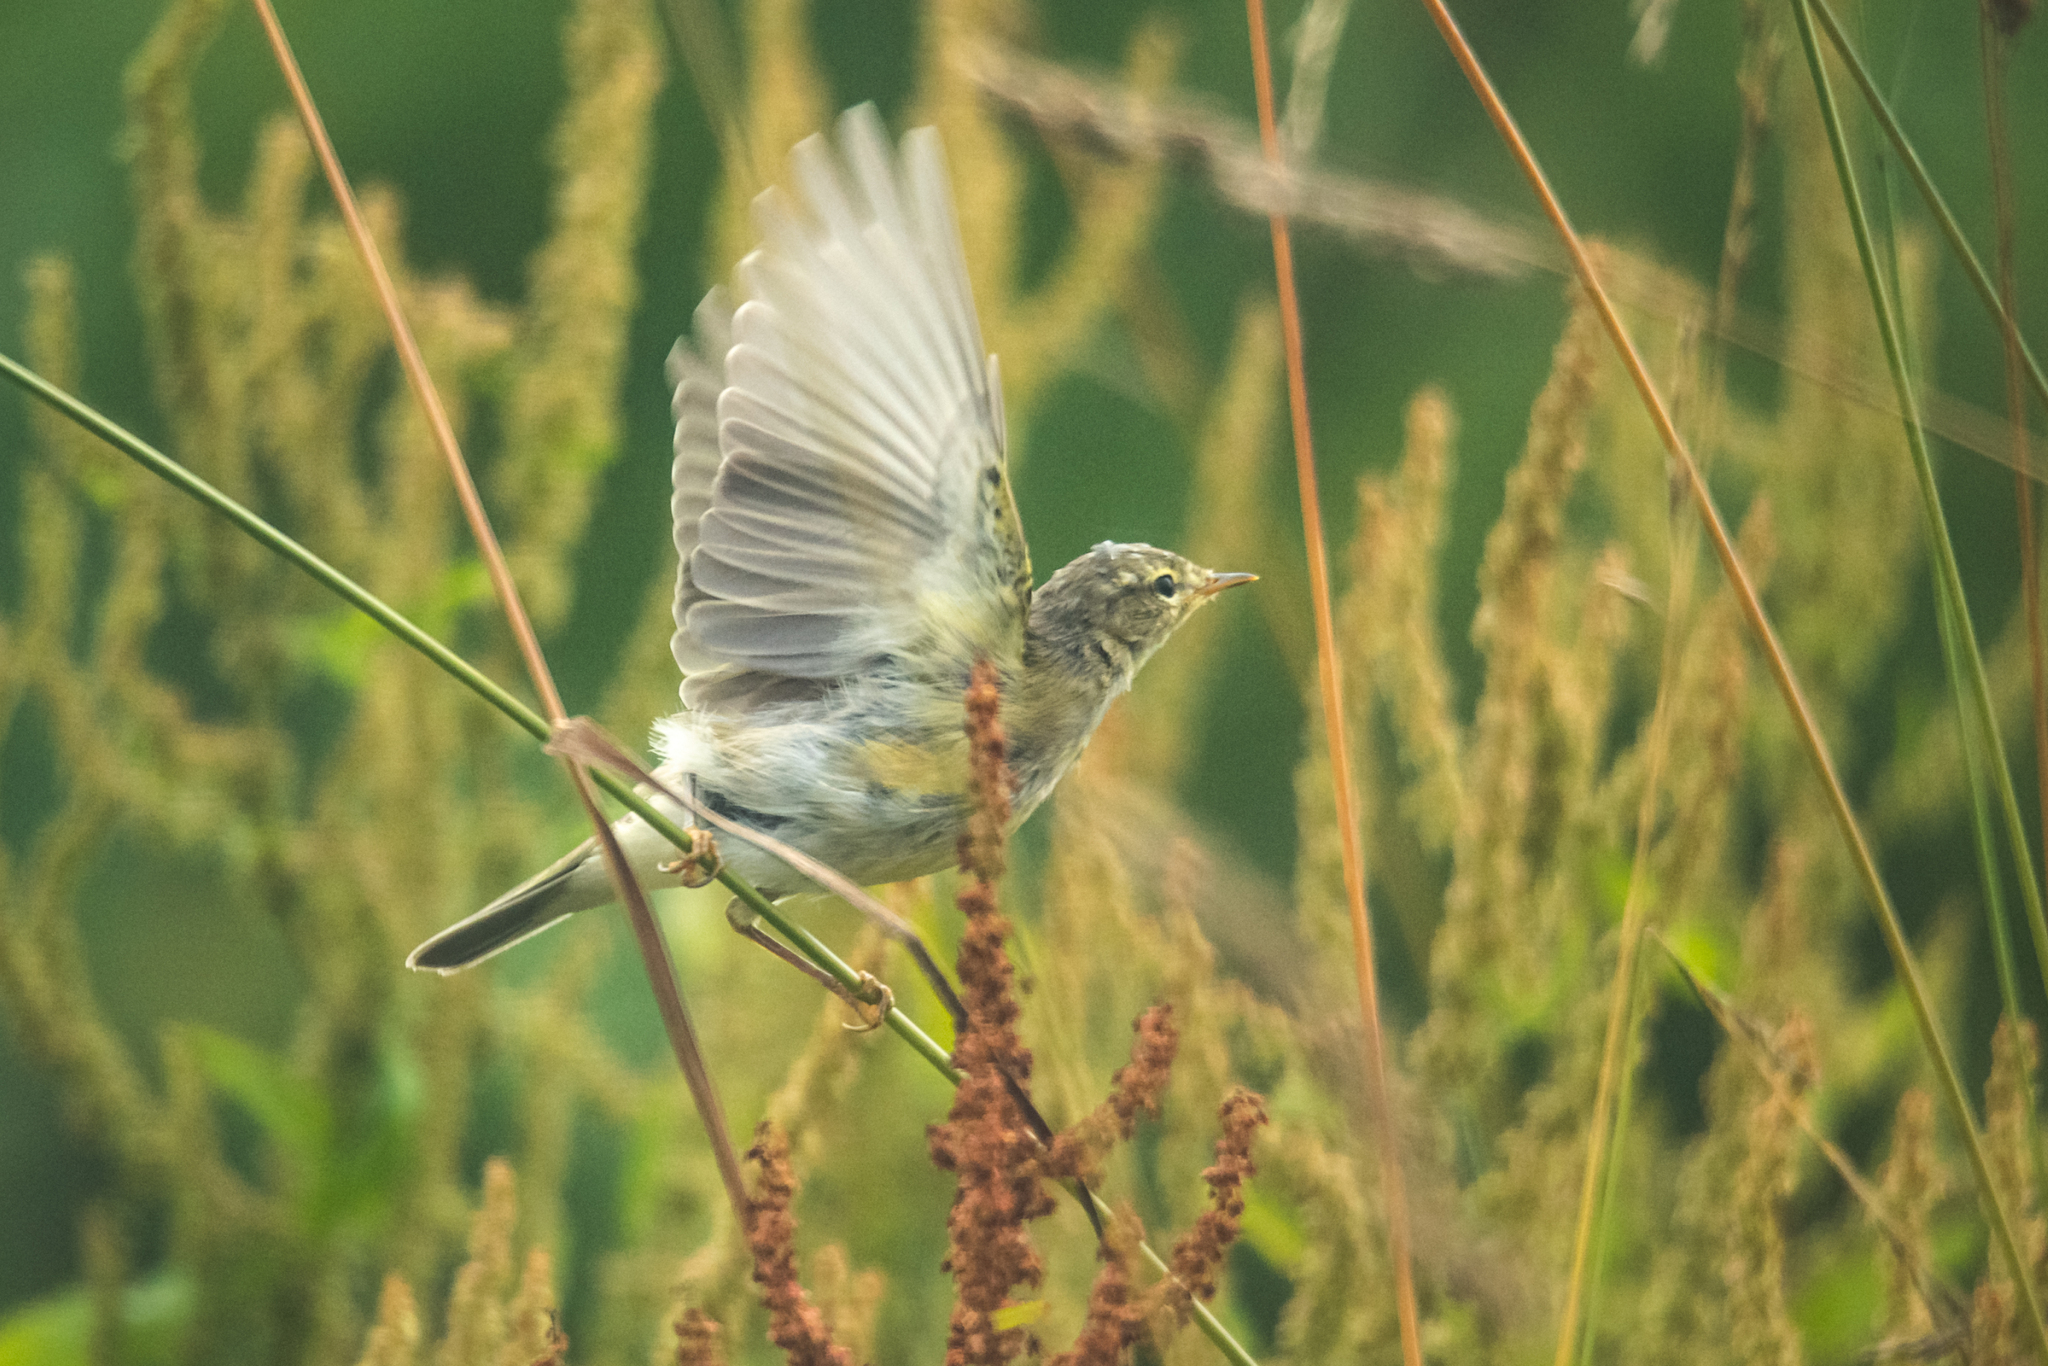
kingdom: Animalia
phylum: Chordata
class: Aves
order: Passeriformes
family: Phylloscopidae
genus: Phylloscopus
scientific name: Phylloscopus trochilus
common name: Willow warbler
